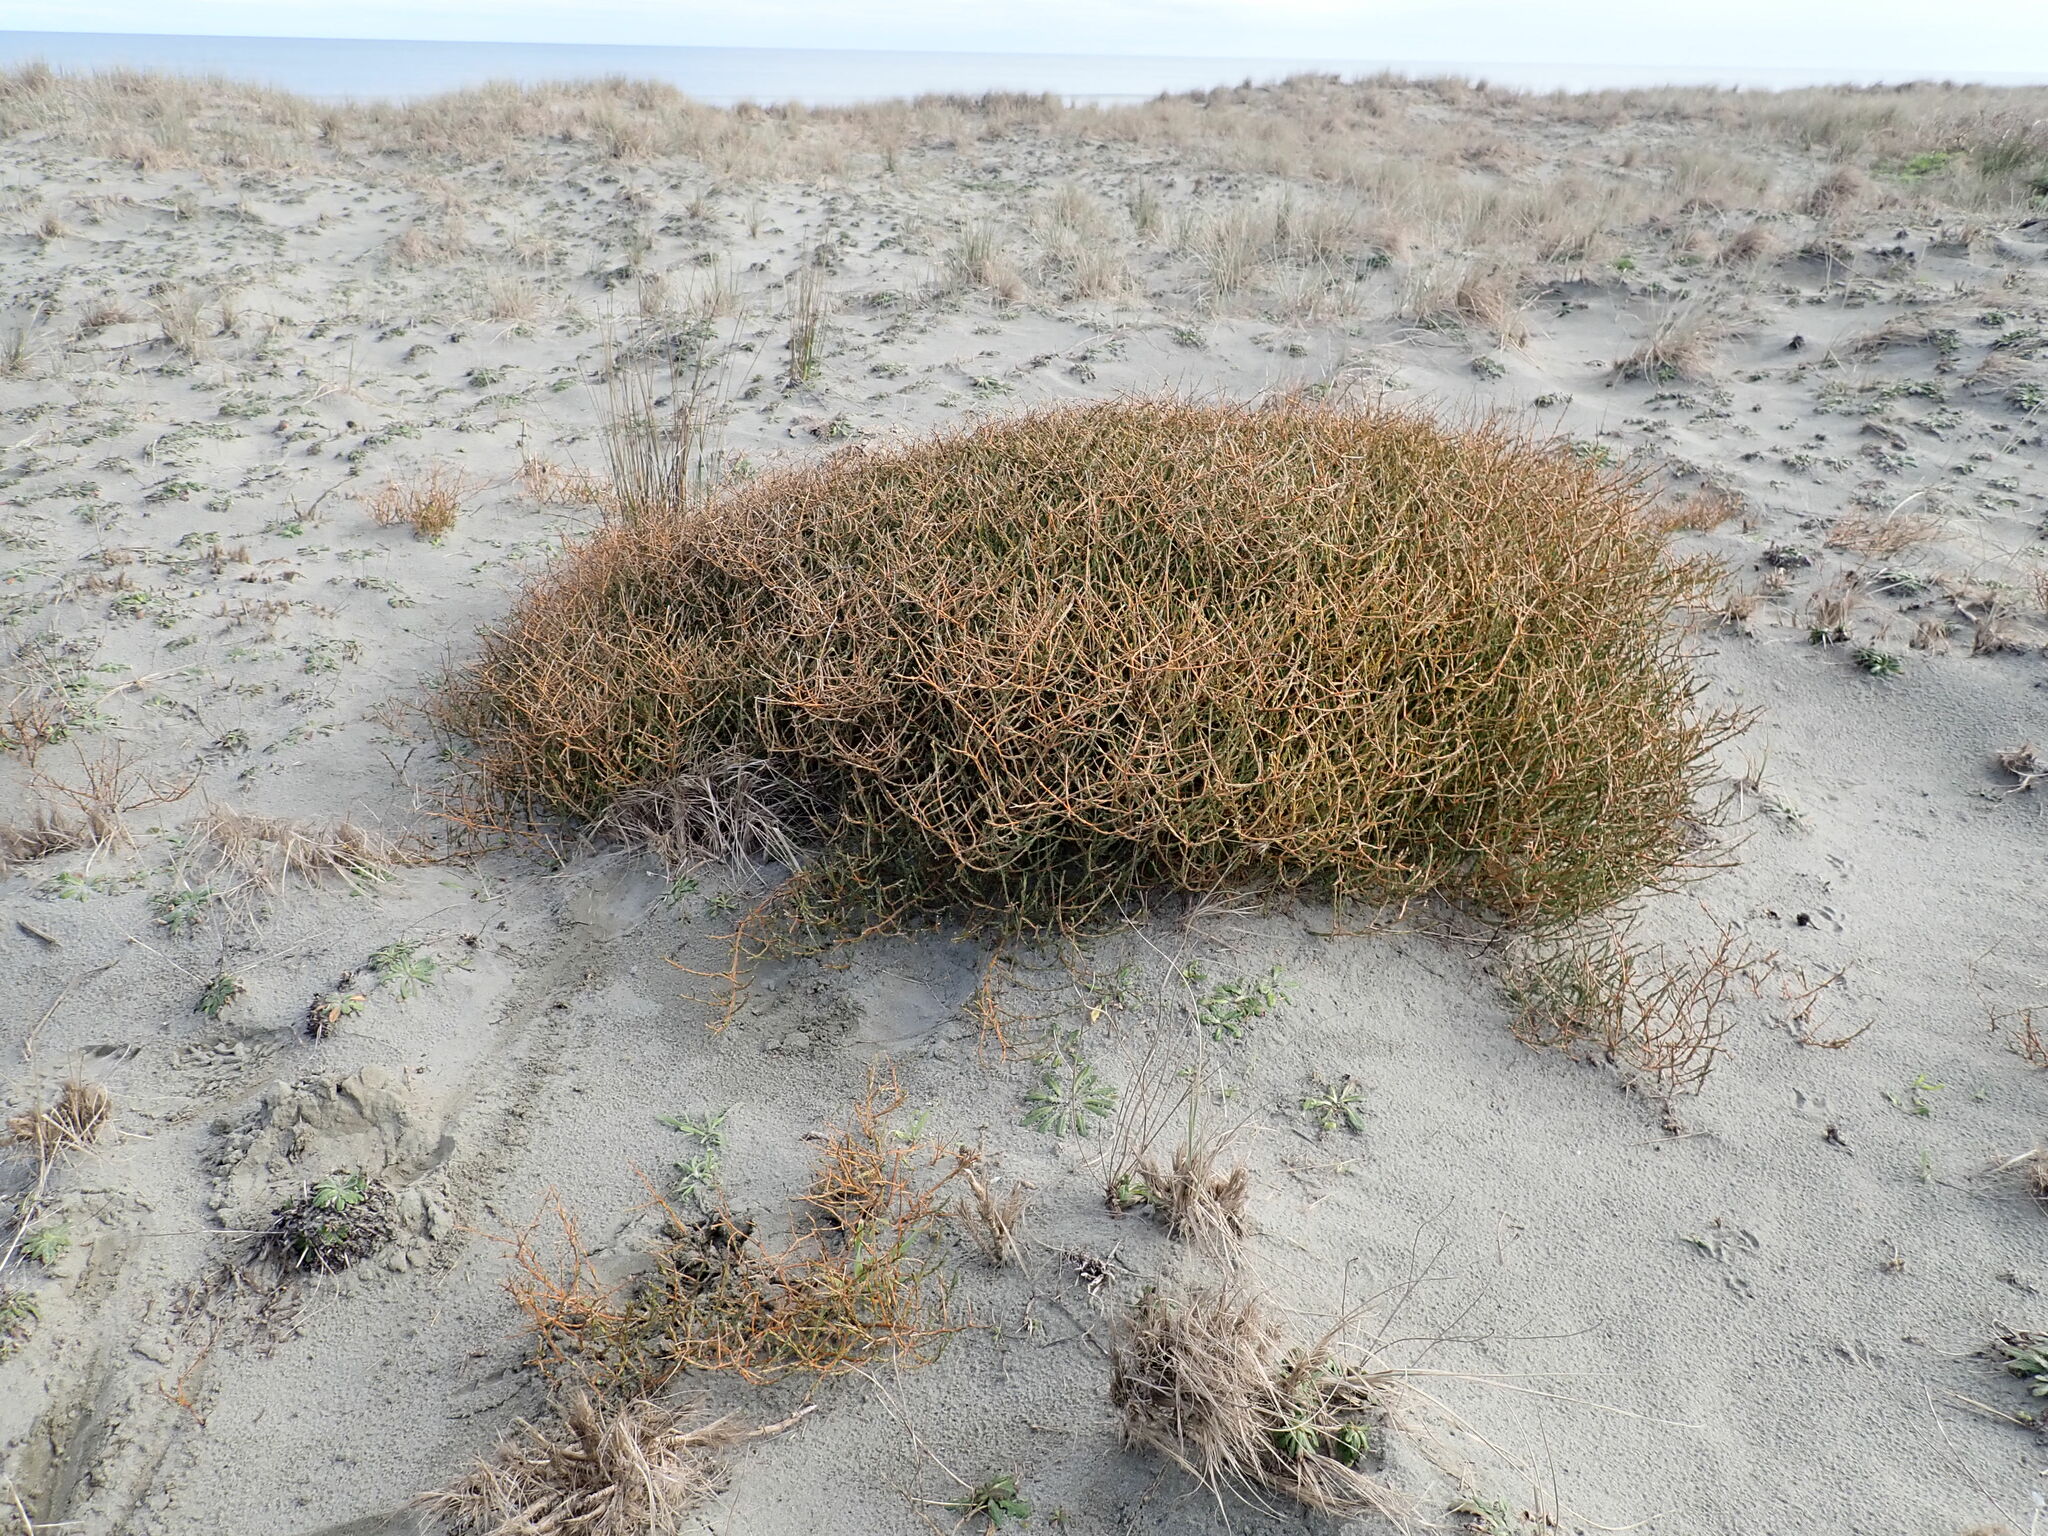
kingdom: Plantae
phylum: Tracheophyta
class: Magnoliopsida
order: Gentianales
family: Rubiaceae
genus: Coprosma
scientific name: Coprosma acerosa
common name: Sand coprosma
